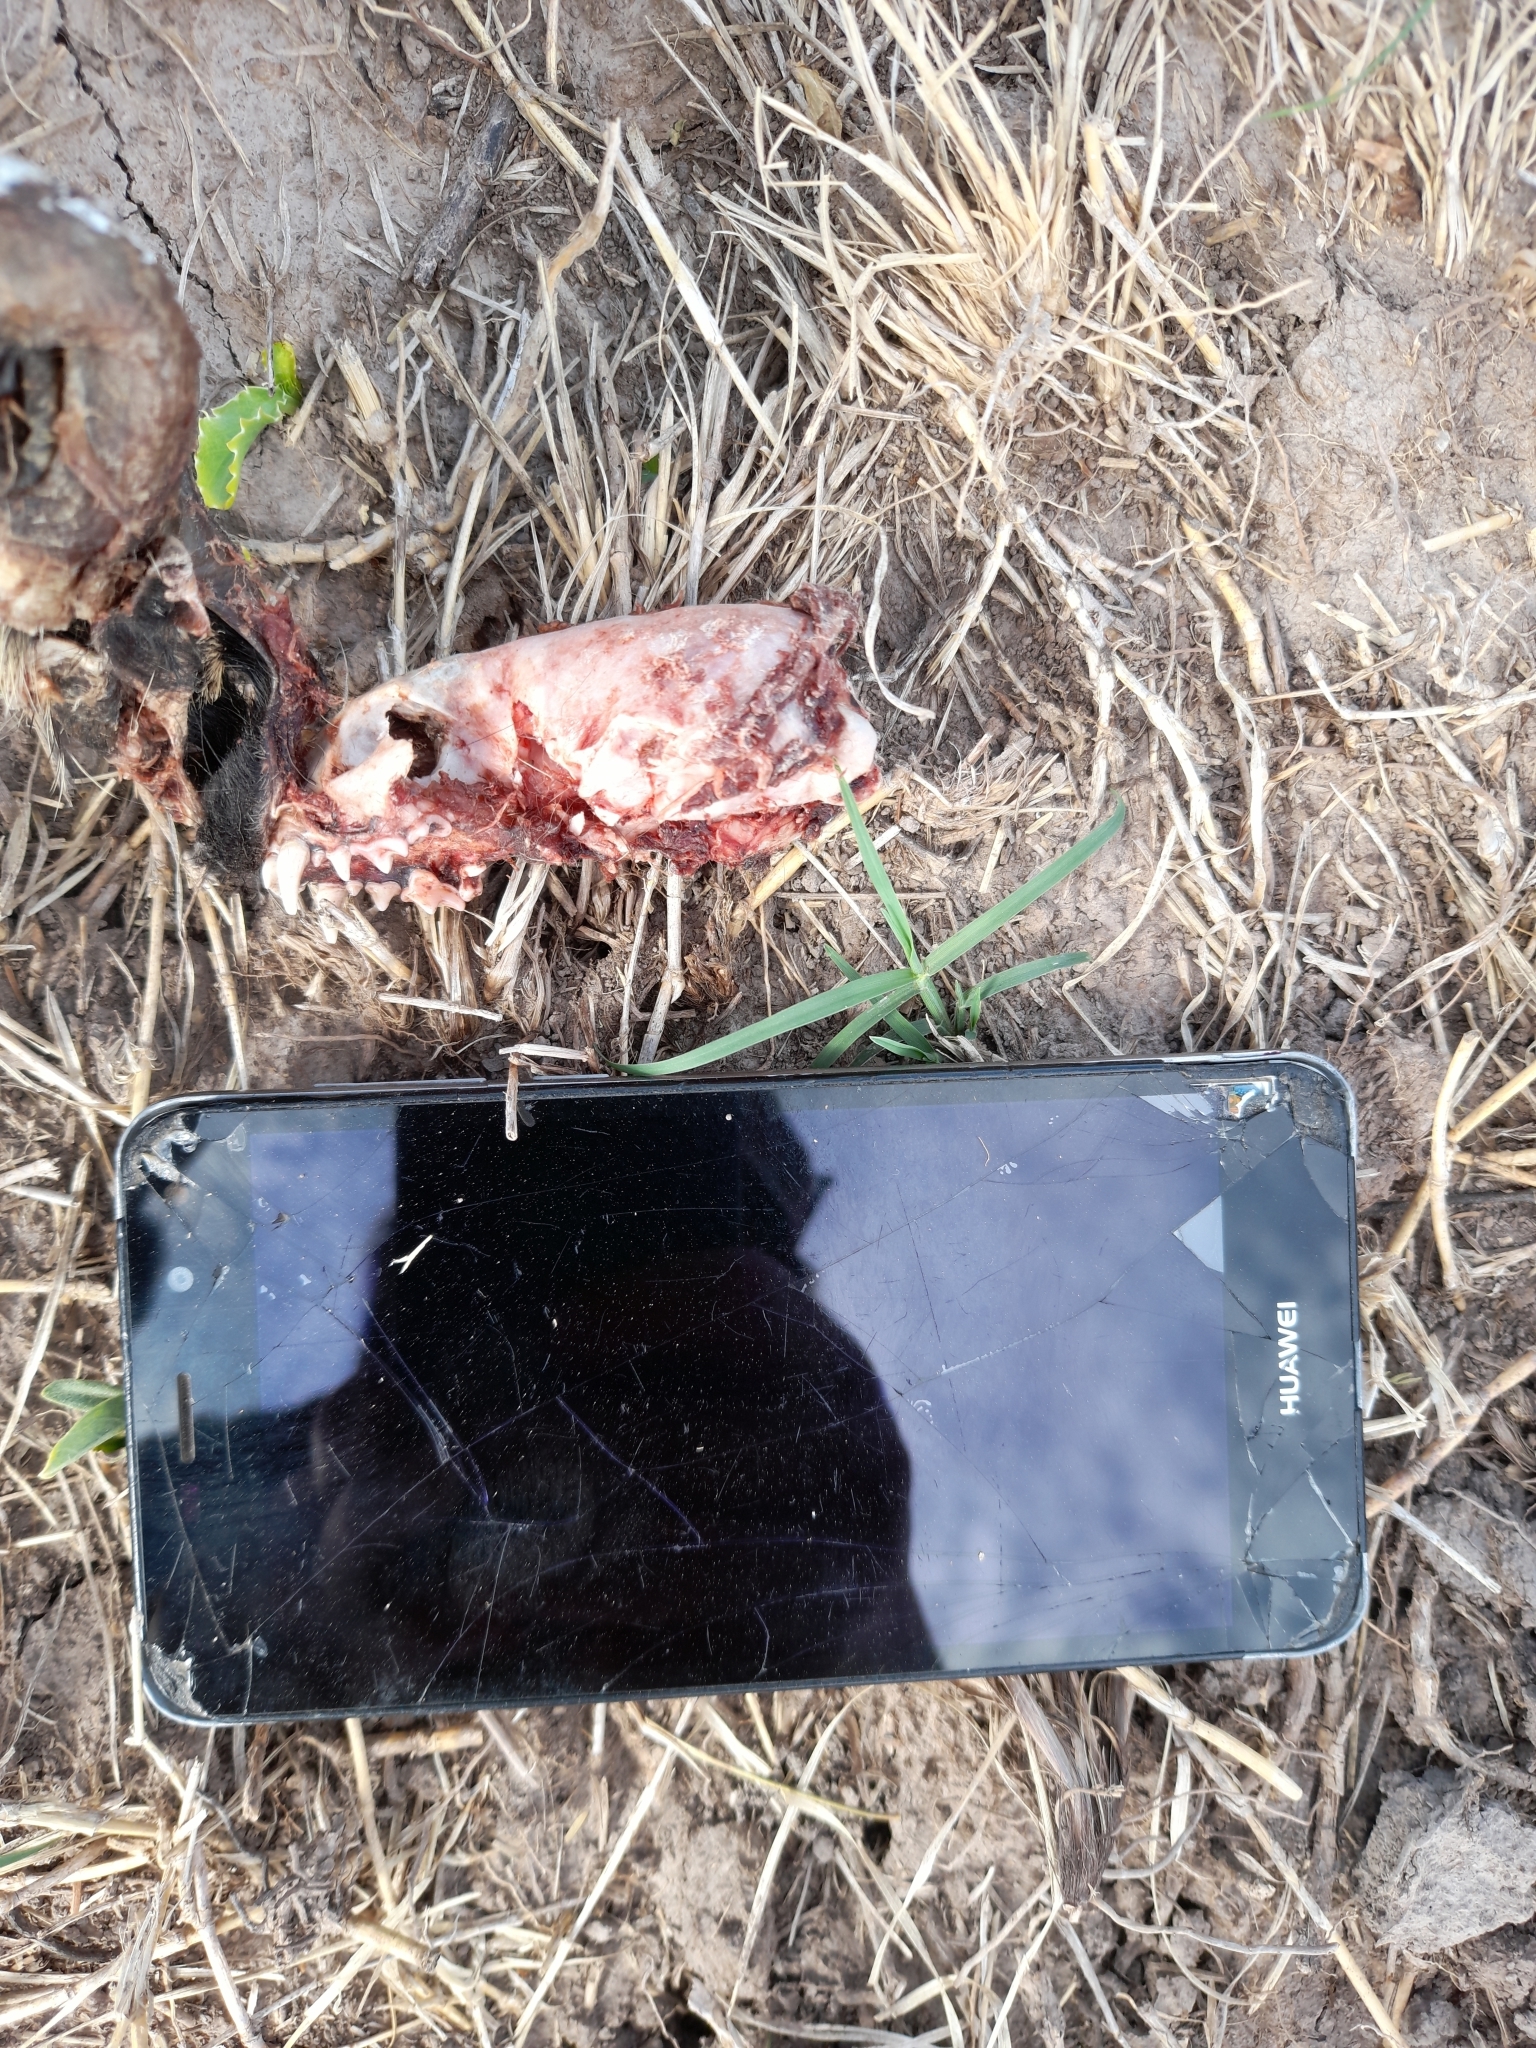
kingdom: Animalia
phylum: Chordata
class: Mammalia
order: Carnivora
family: Mustelidae
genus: Galictis
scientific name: Galictis cuja
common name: Lesser grison
